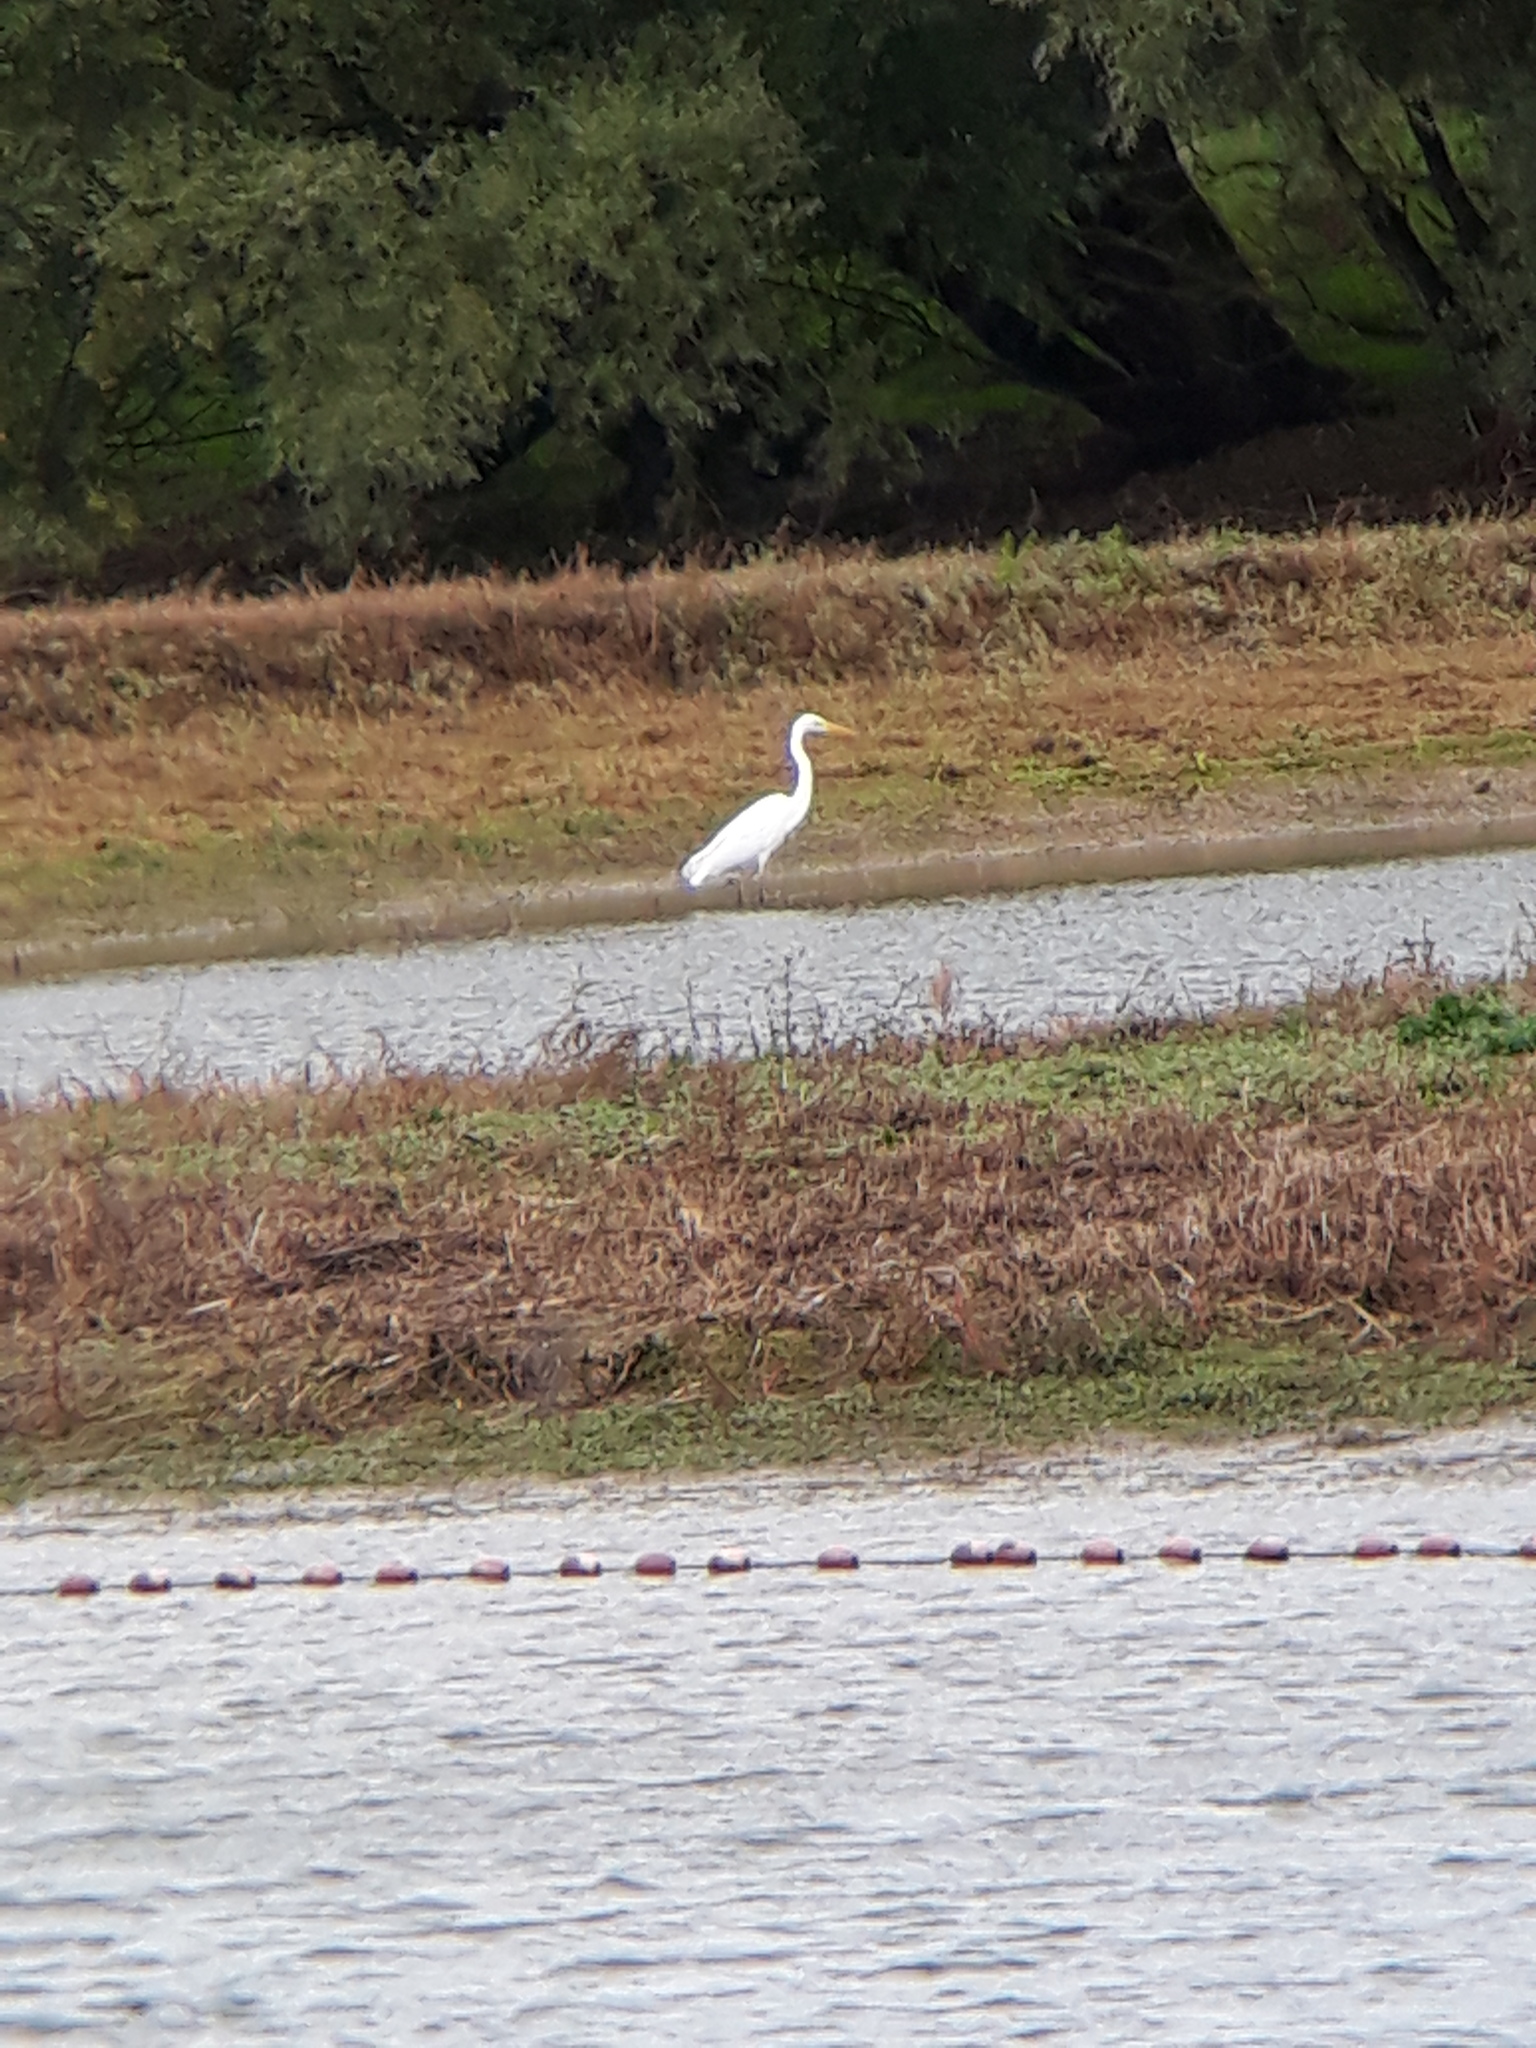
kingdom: Animalia
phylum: Chordata
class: Aves
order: Pelecaniformes
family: Ardeidae
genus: Ardea
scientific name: Ardea alba
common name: Great egret
